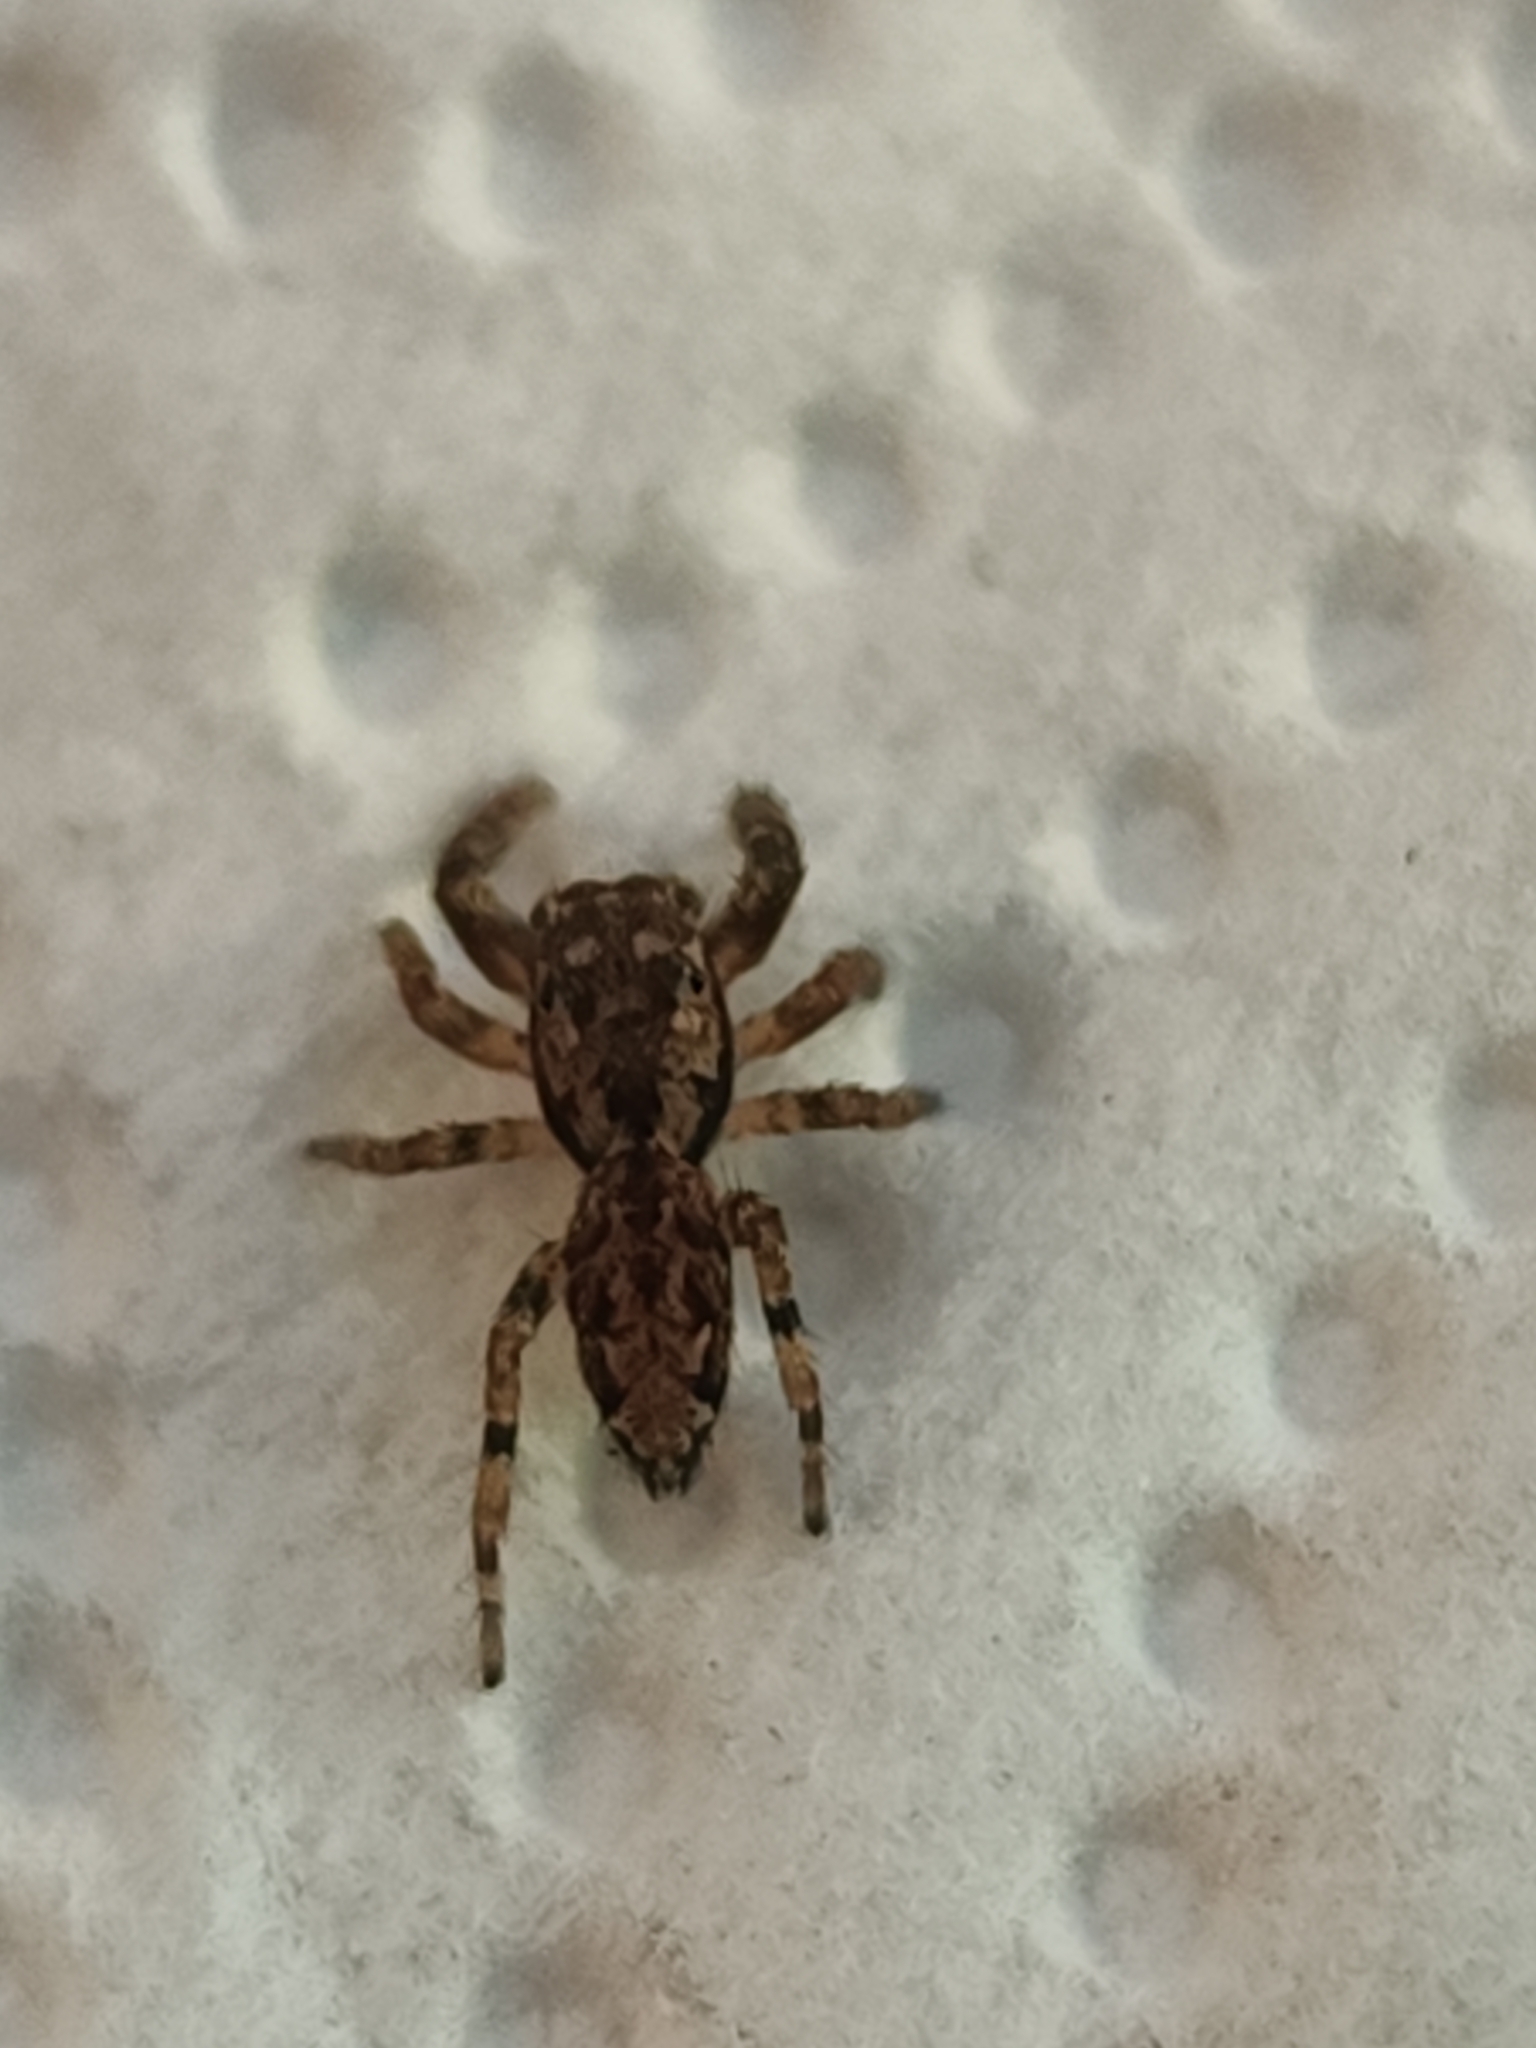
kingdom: Animalia
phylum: Arthropoda
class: Arachnida
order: Araneae
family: Salticidae
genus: Marpissa
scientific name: Marpissa muscosa
